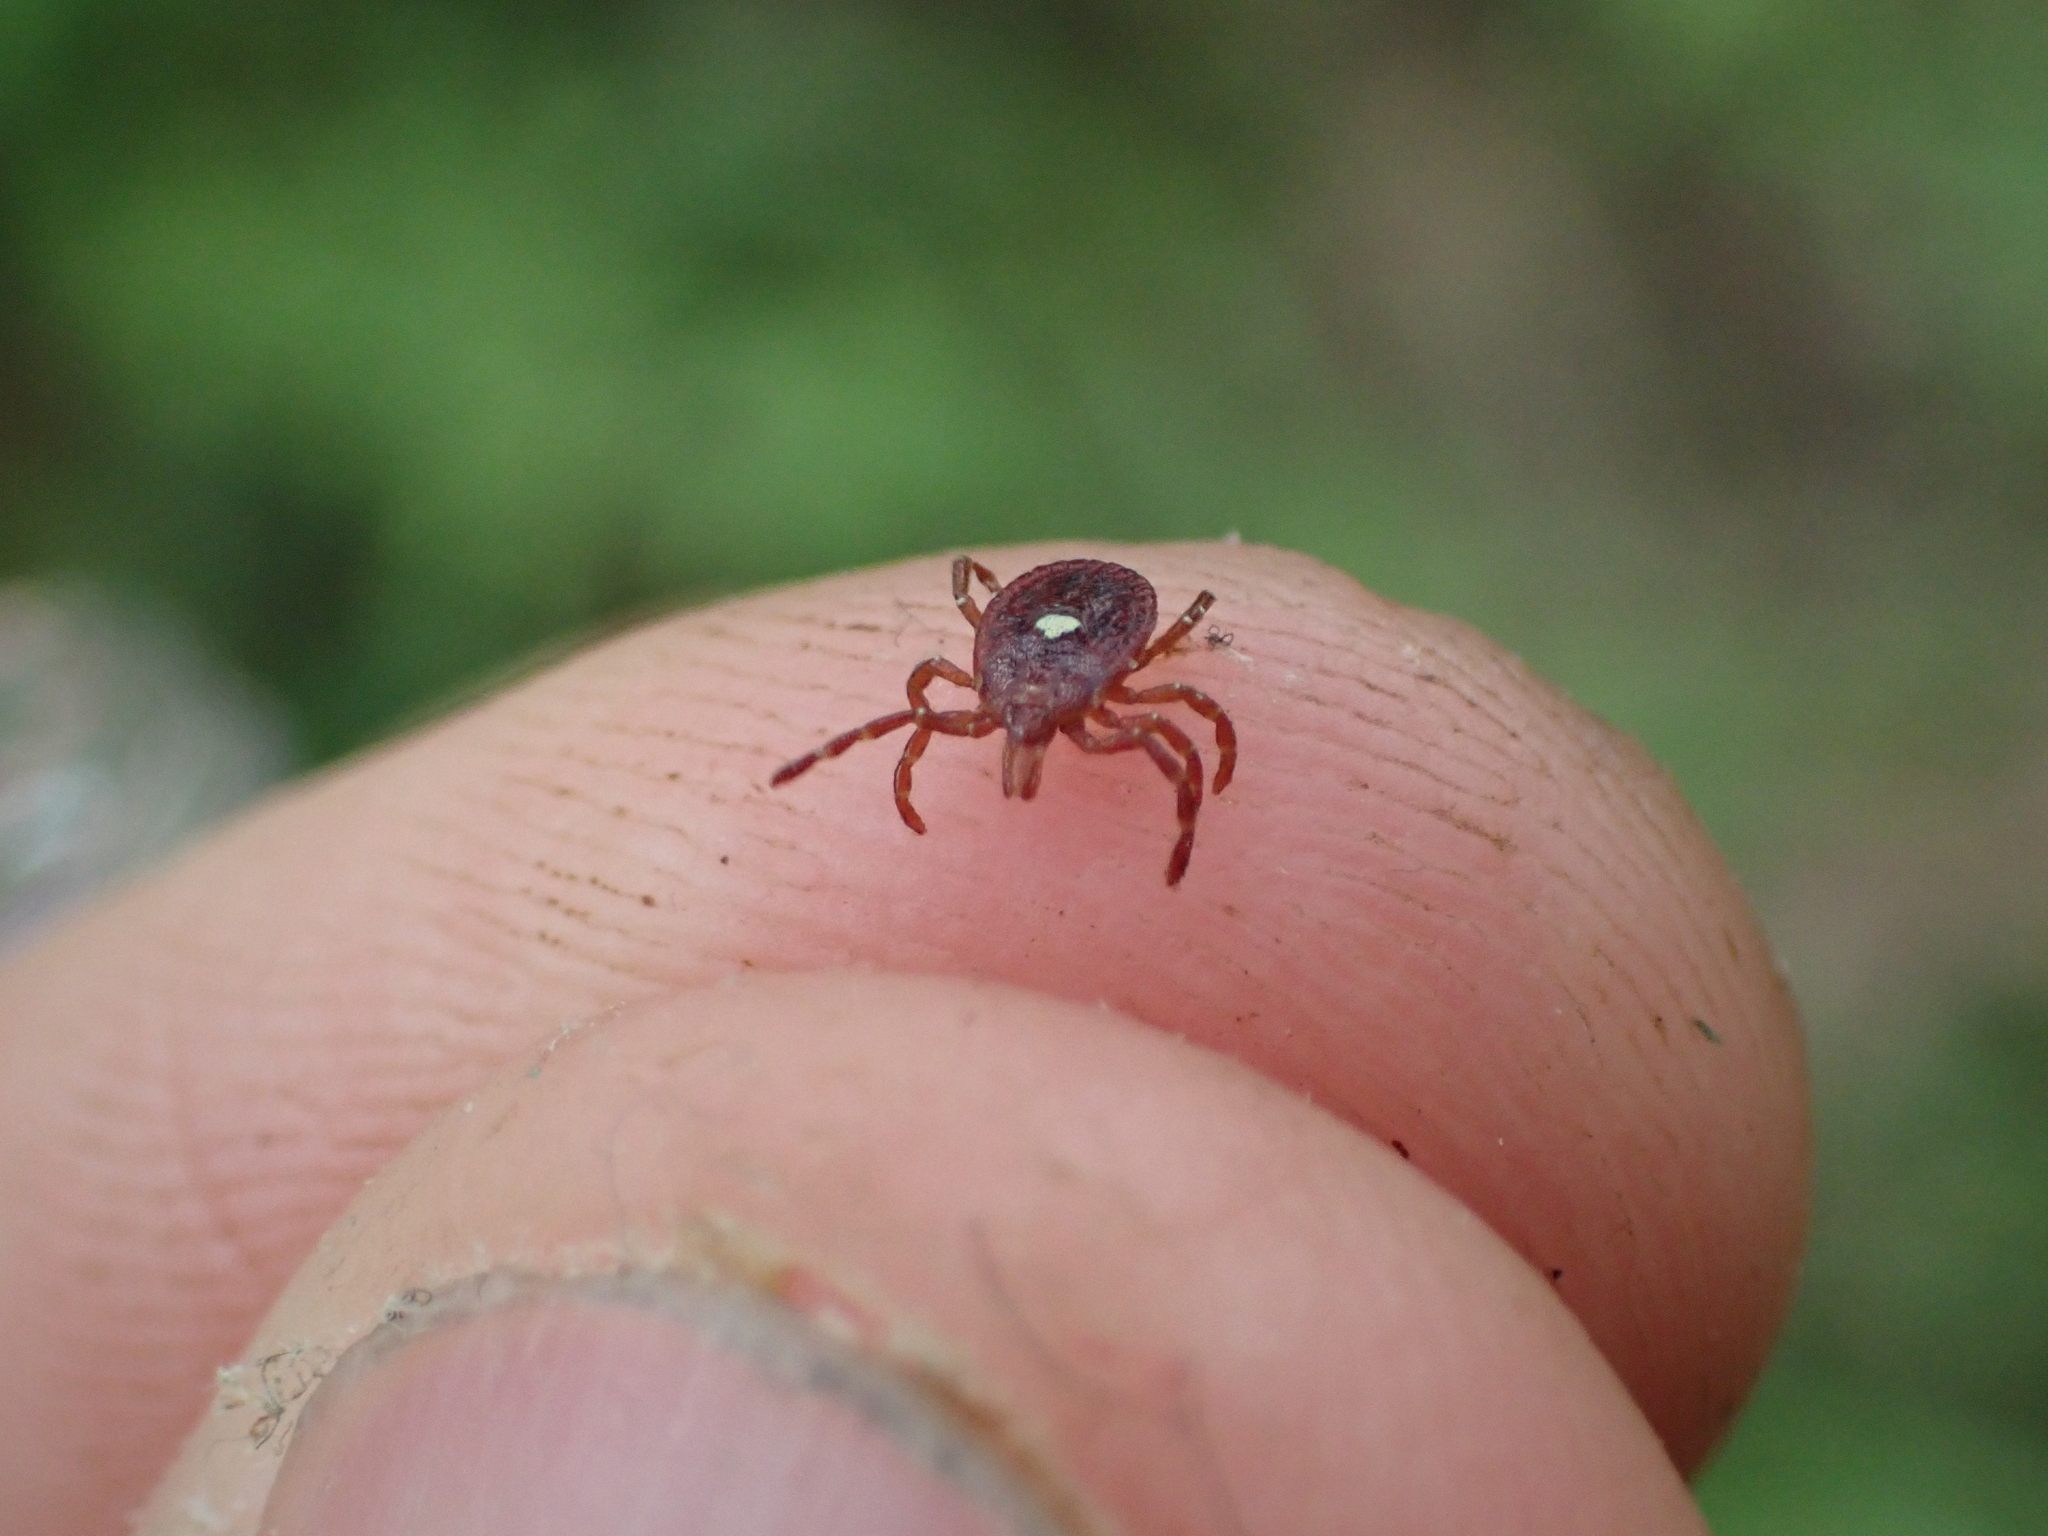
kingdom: Animalia
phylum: Arthropoda
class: Arachnida
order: Ixodida
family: Ixodidae
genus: Amblyomma
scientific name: Amblyomma americanum
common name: Lone star tick
